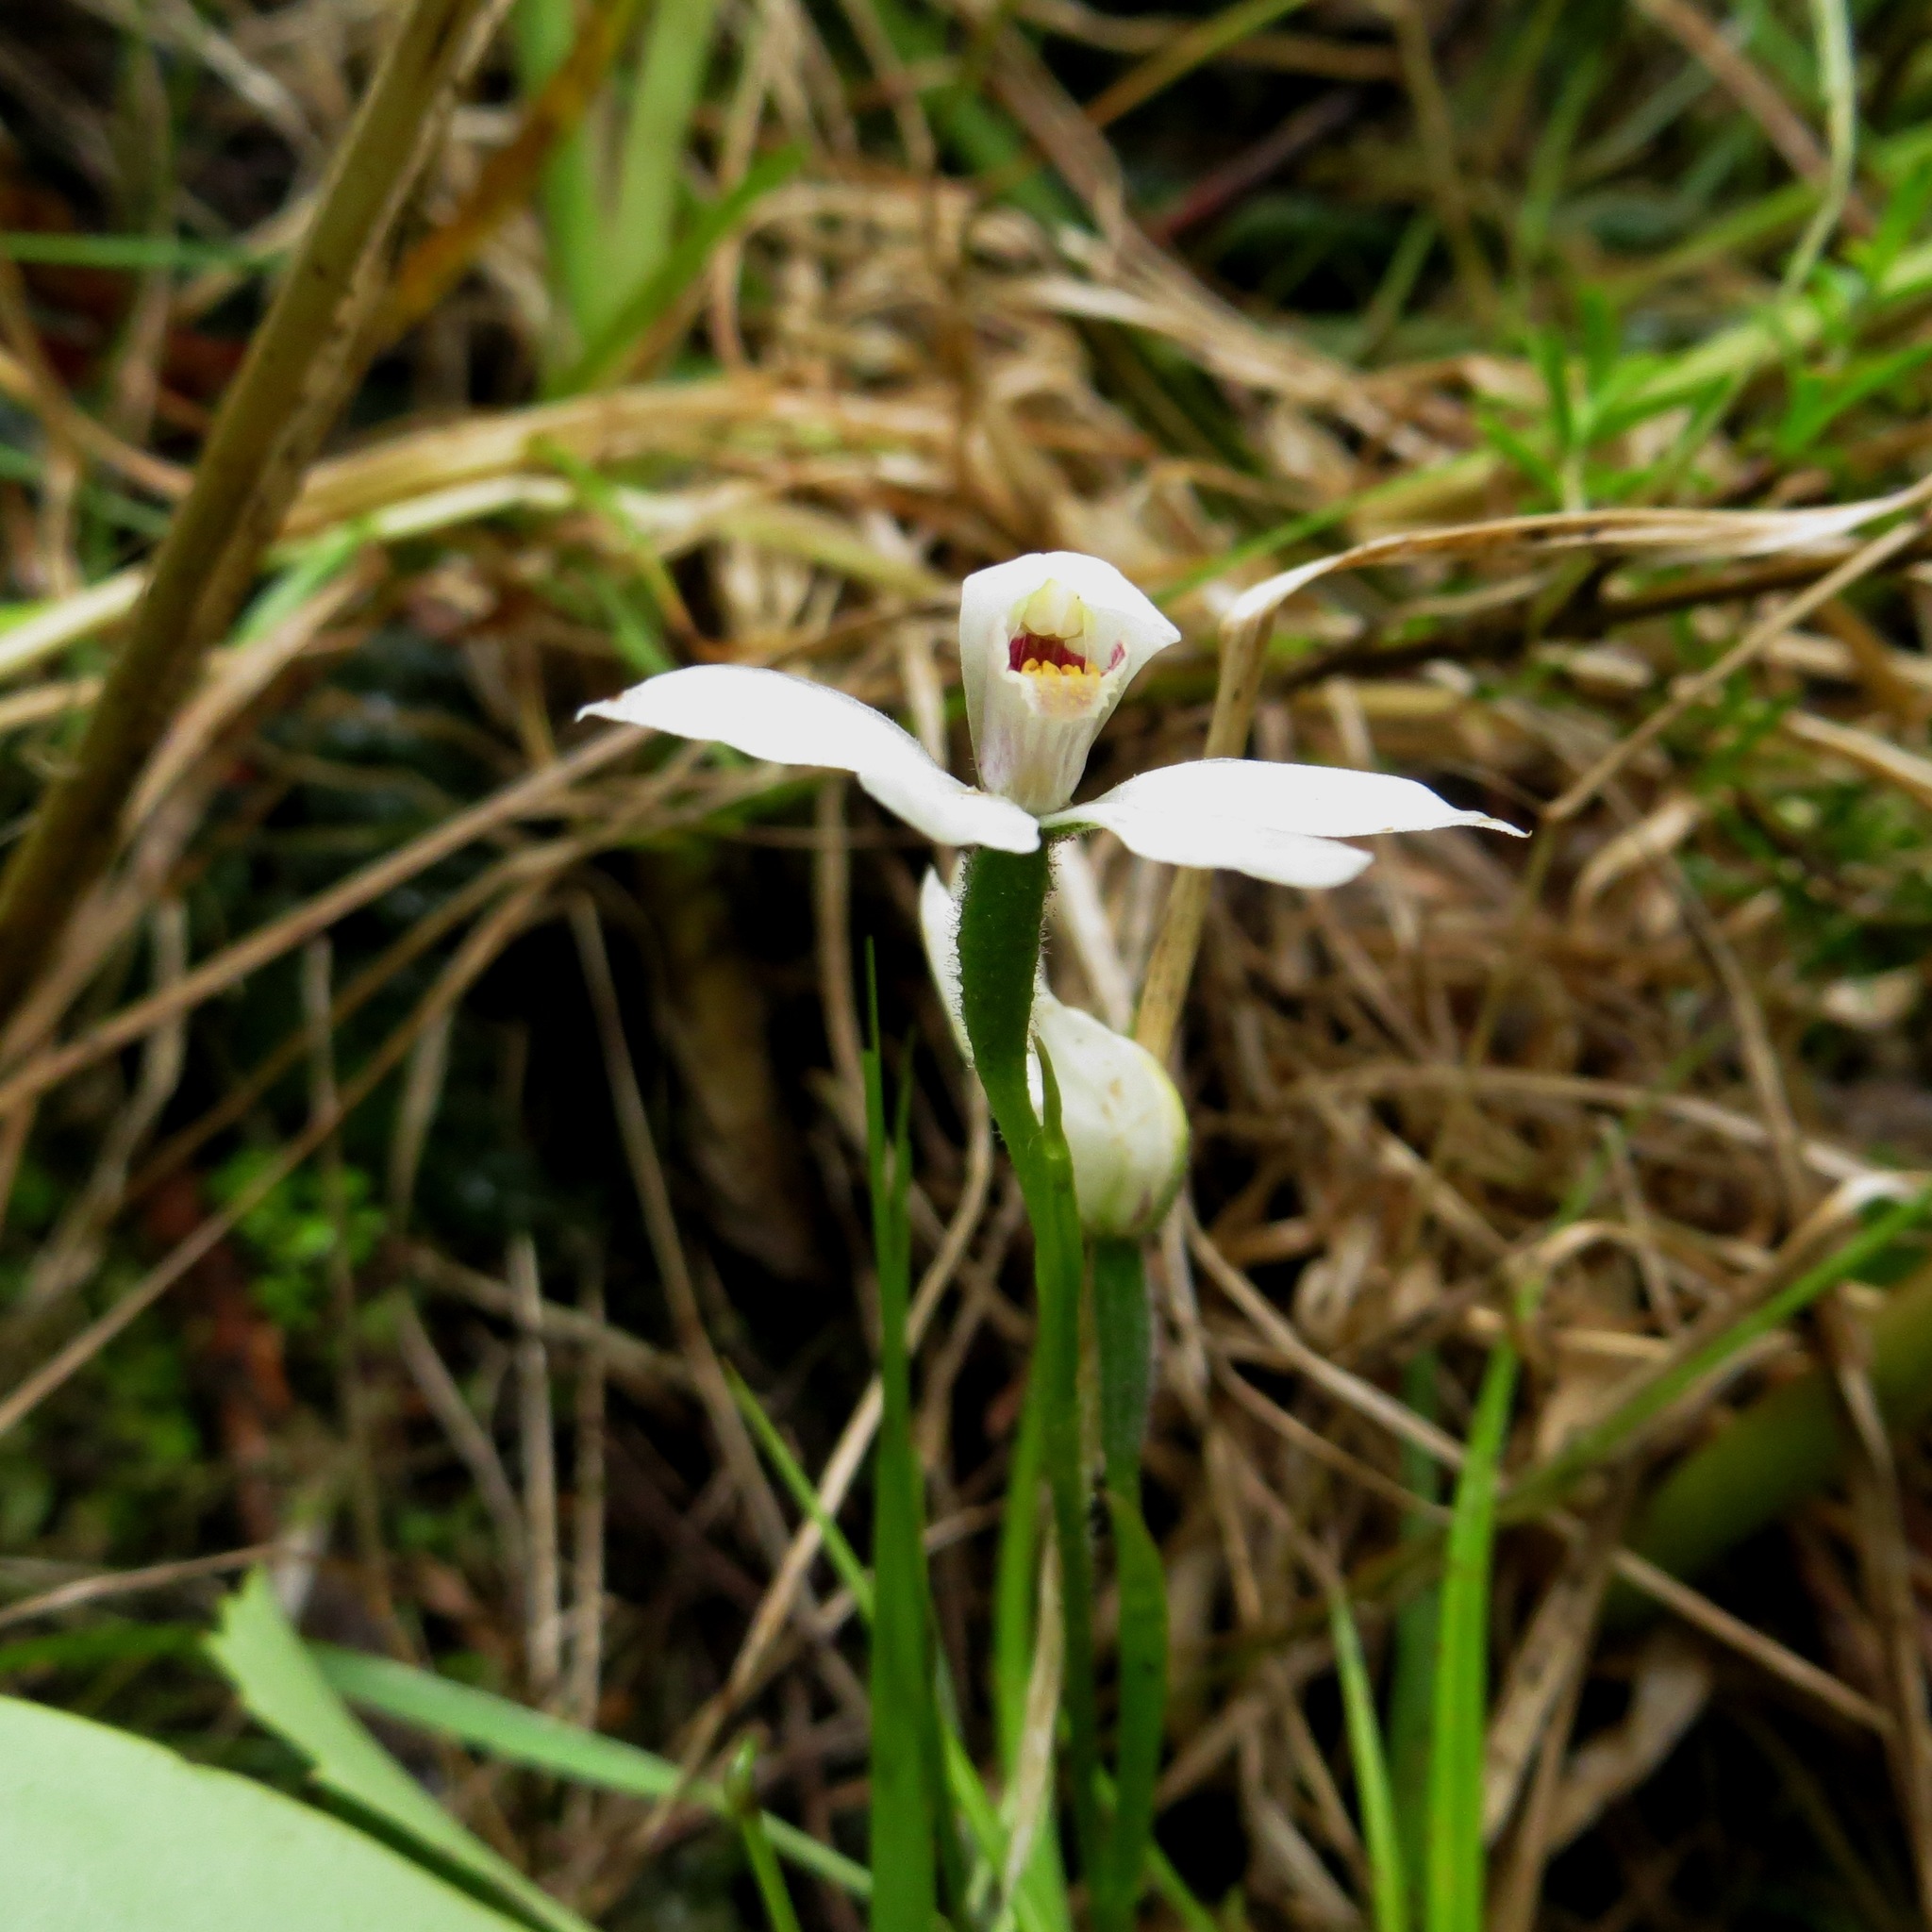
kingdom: Plantae
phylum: Tracheophyta
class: Liliopsida
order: Asparagales
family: Orchidaceae
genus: Caladenia
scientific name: Caladenia lyallii
